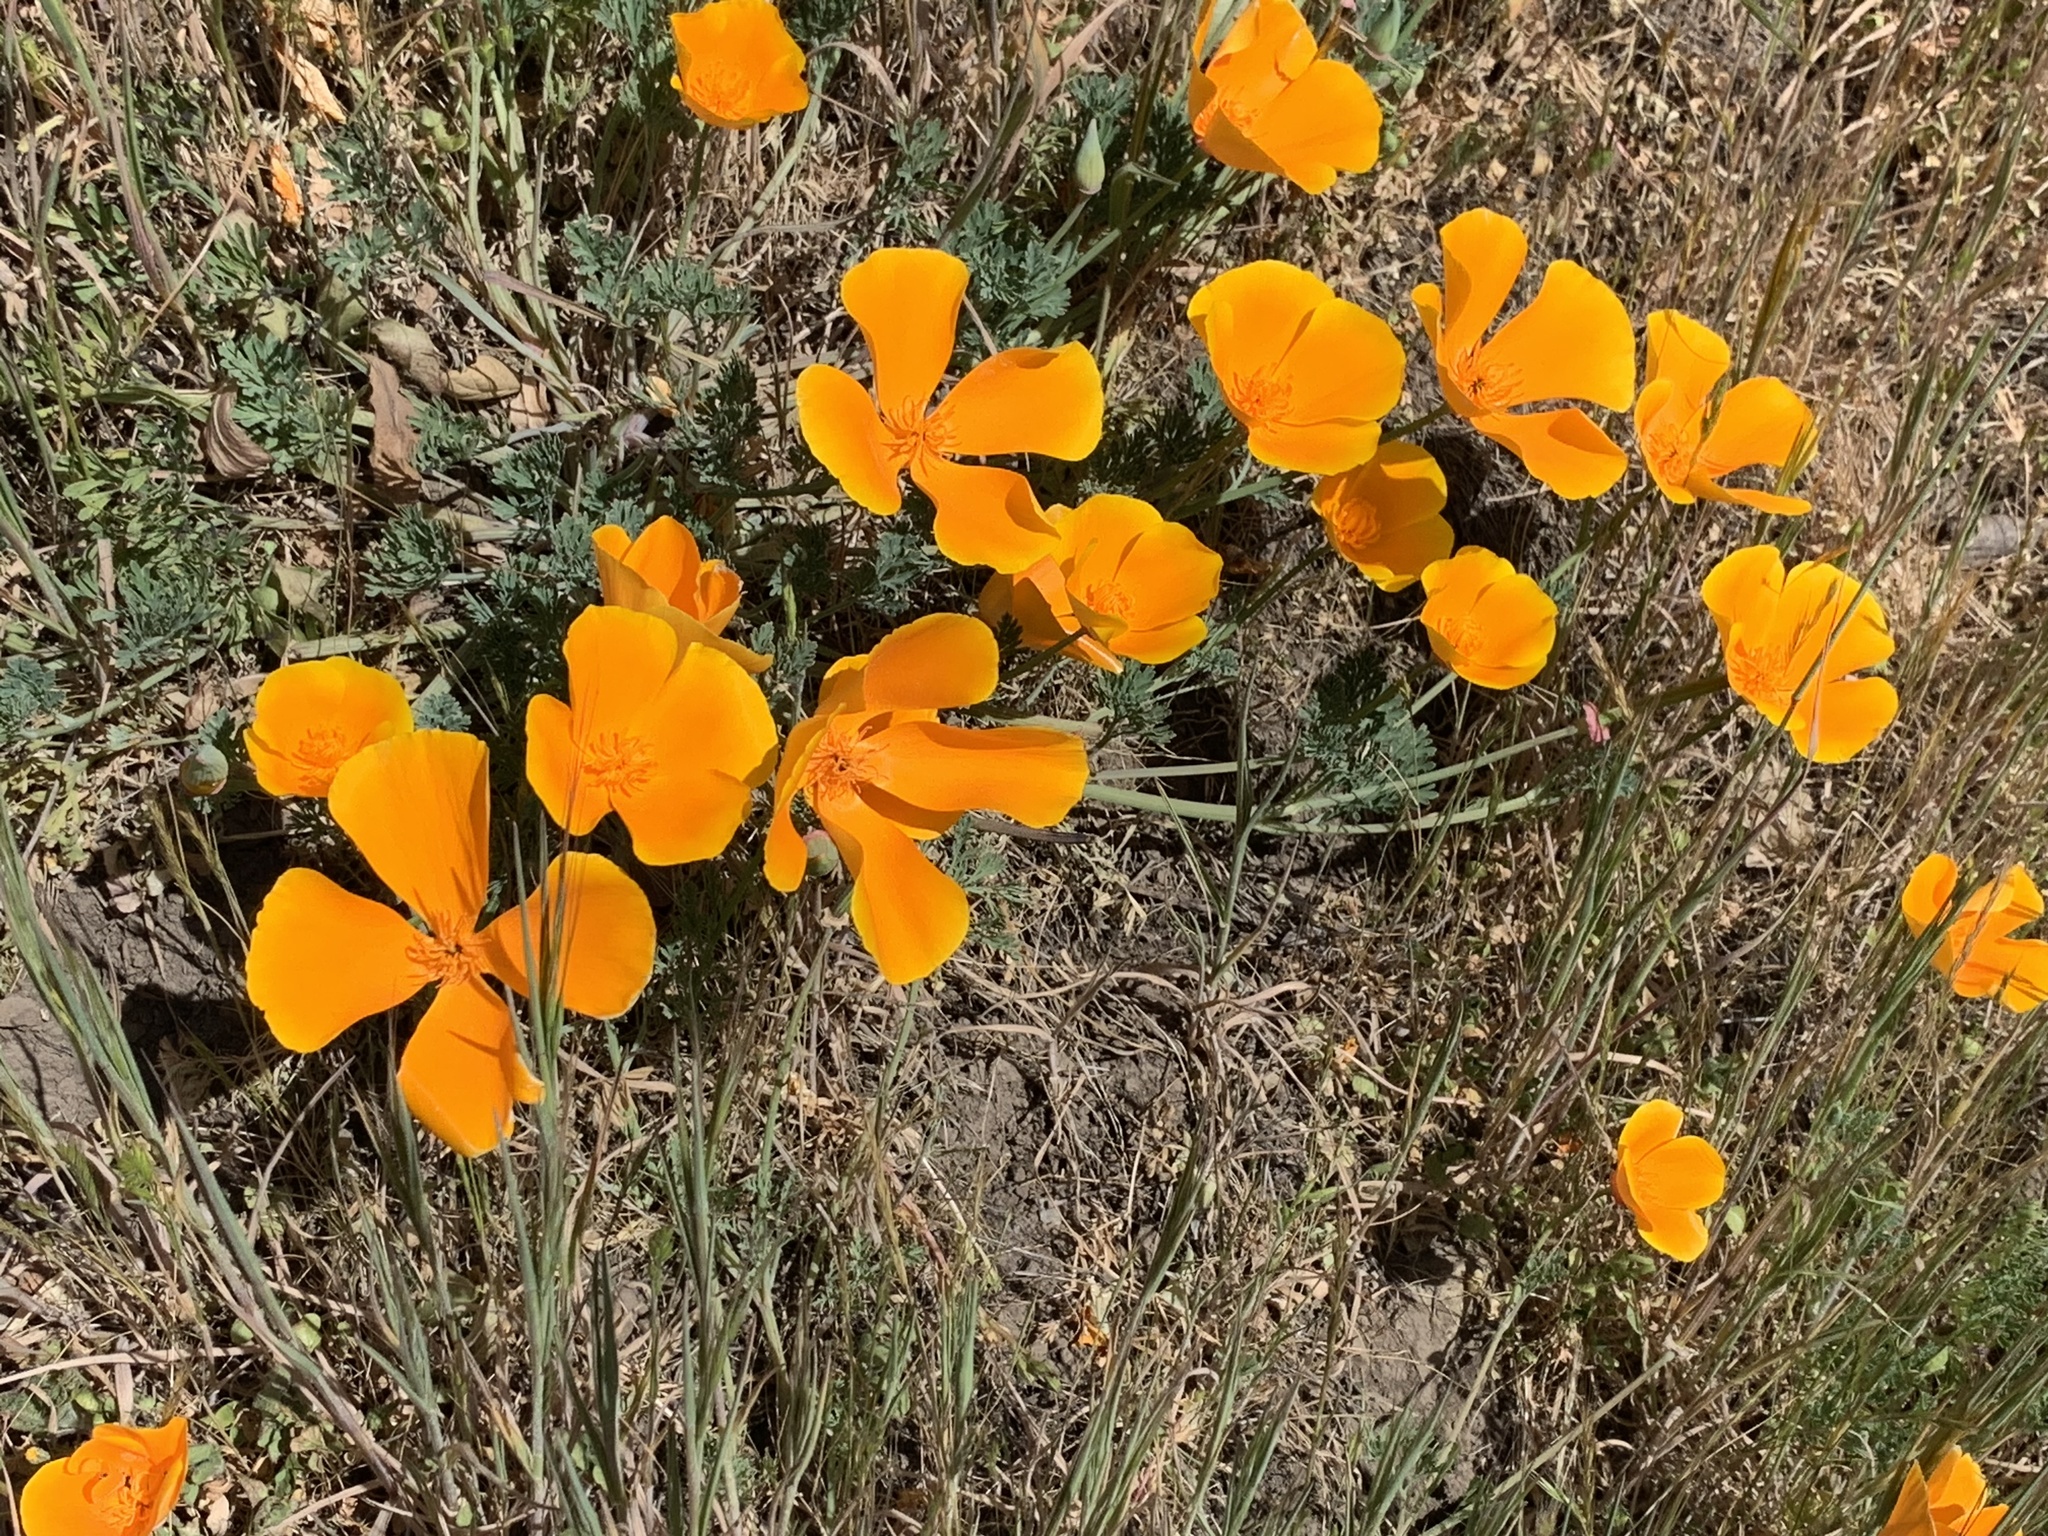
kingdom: Plantae
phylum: Tracheophyta
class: Magnoliopsida
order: Ranunculales
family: Papaveraceae
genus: Eschscholzia
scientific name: Eschscholzia californica
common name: California poppy
